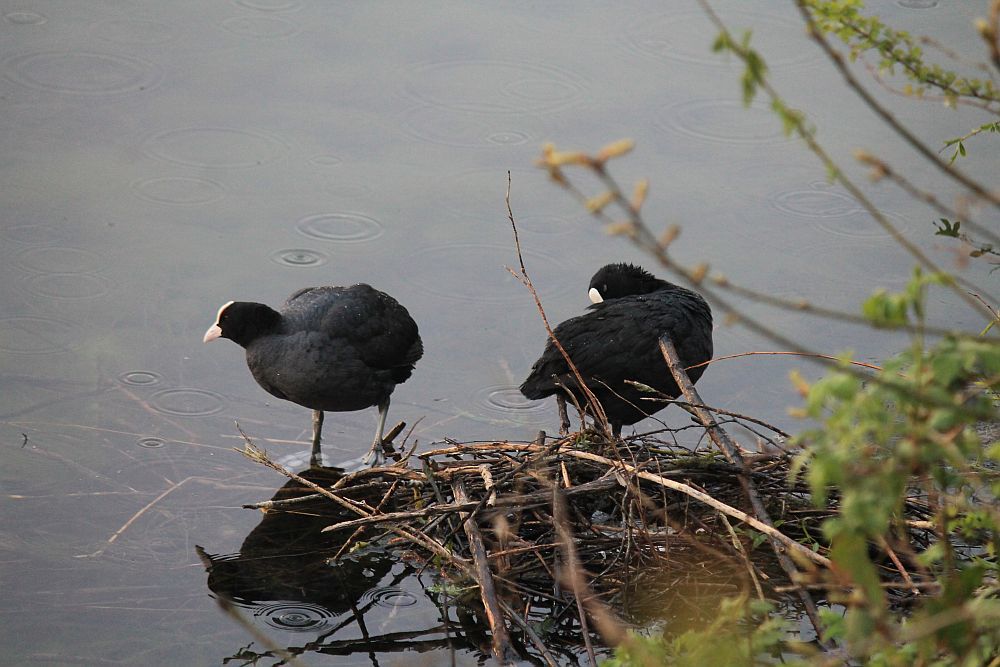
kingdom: Animalia
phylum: Chordata
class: Aves
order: Gruiformes
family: Rallidae
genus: Fulica
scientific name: Fulica atra
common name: Eurasian coot
